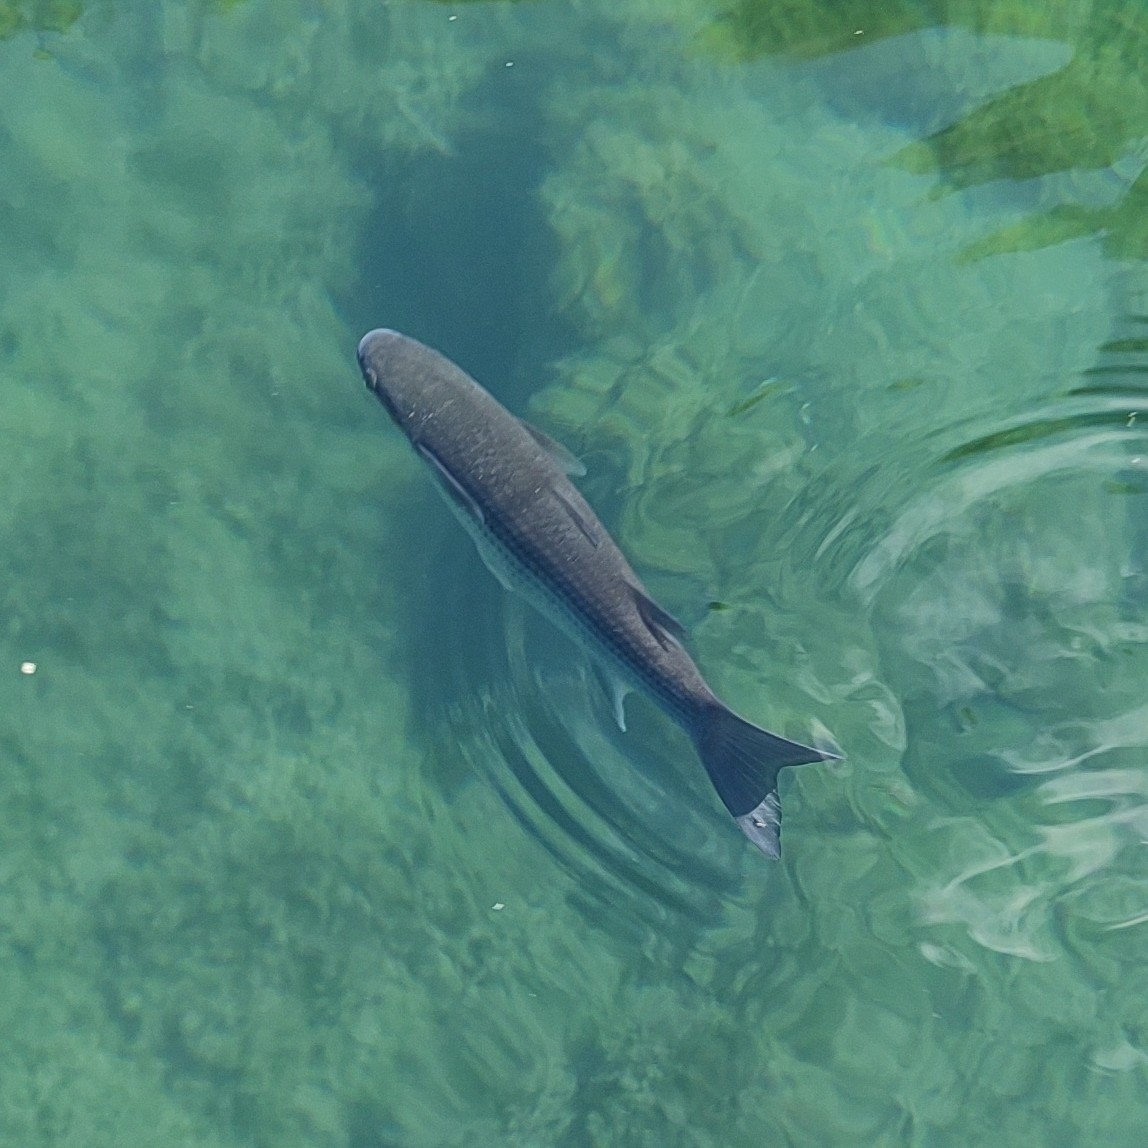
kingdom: Animalia
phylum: Chordata
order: Mugiliformes
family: Mugilidae
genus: Chelon
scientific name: Chelon labrosus
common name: Thick-lipped mullet
